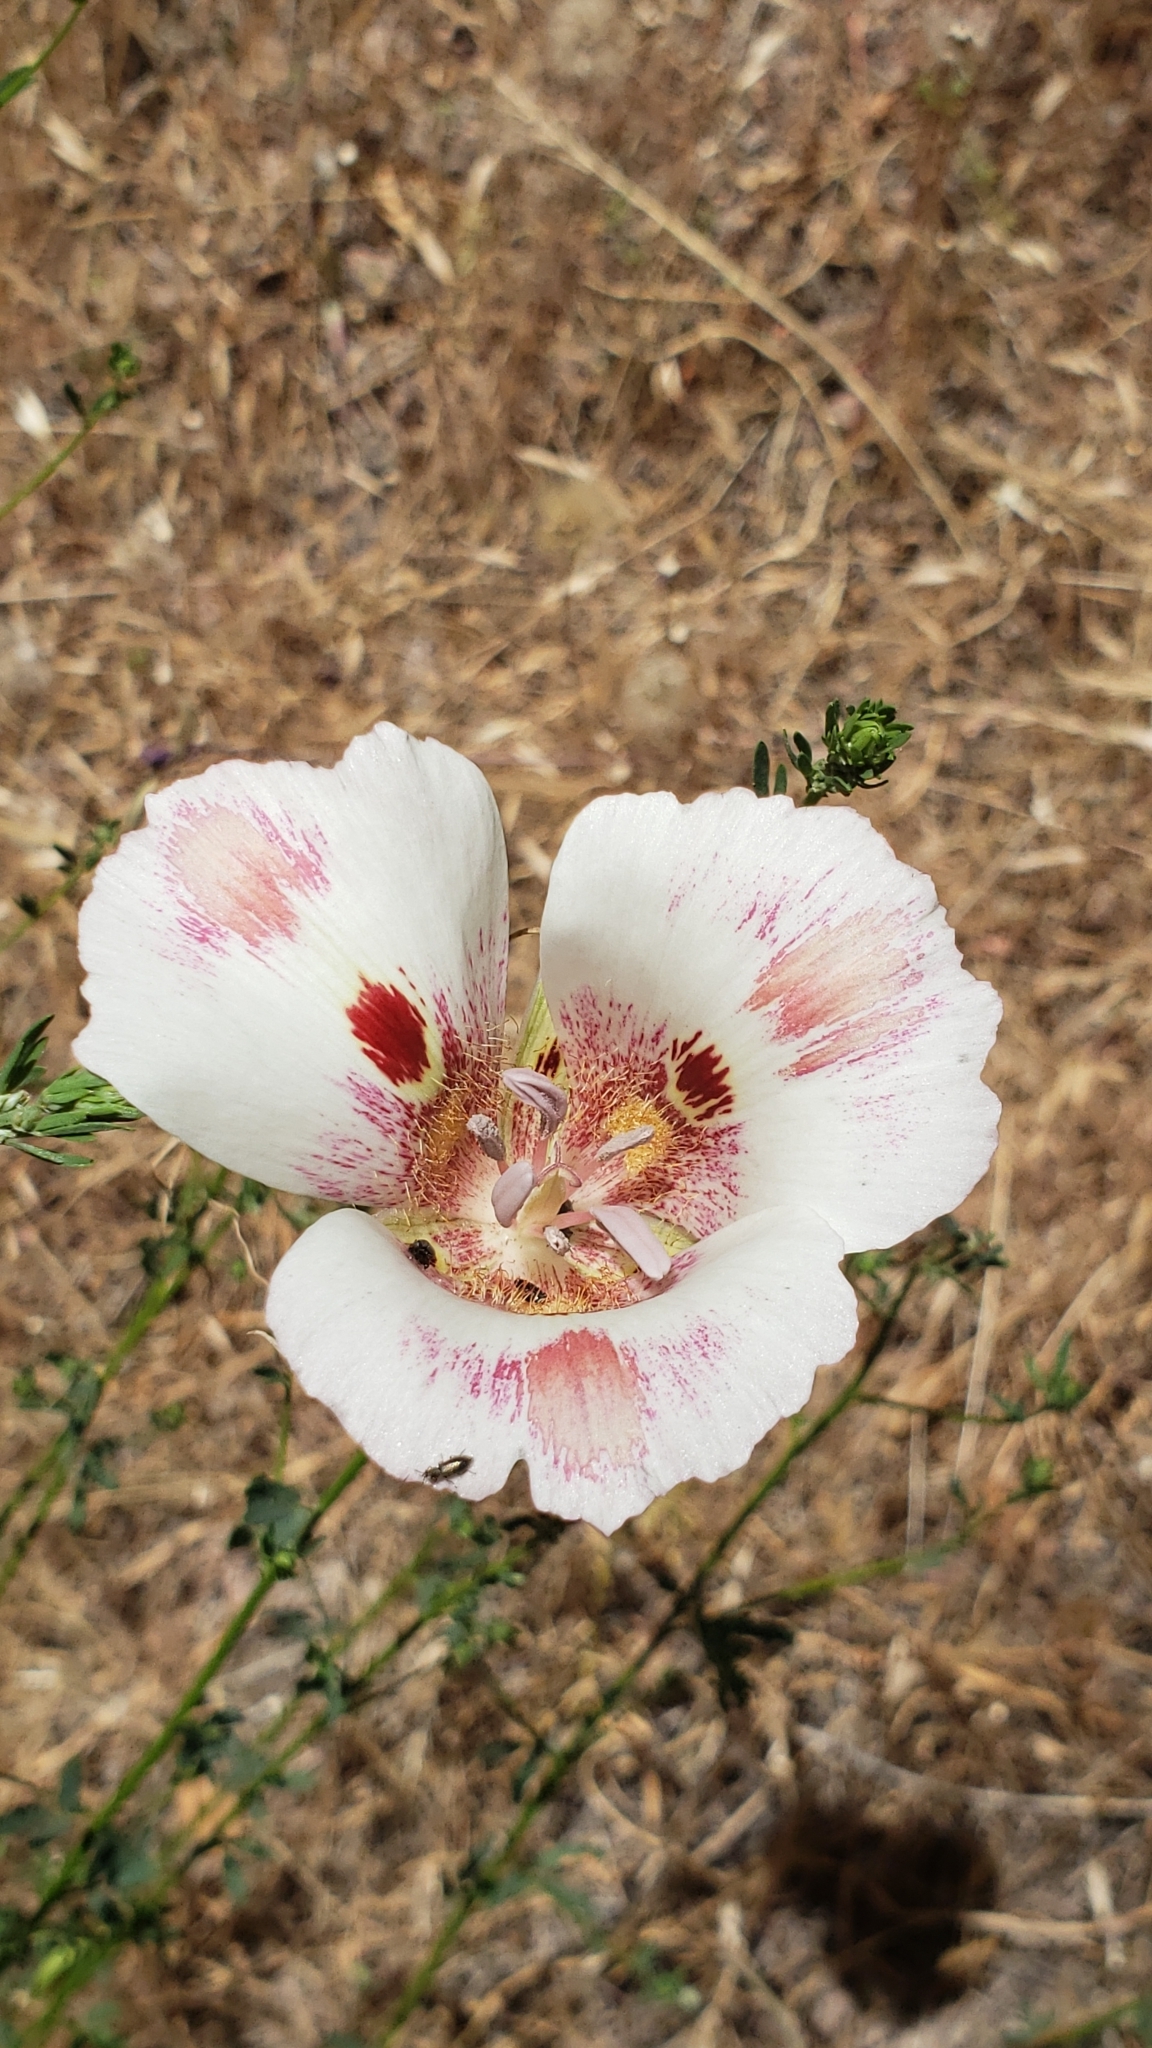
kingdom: Plantae
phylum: Tracheophyta
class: Liliopsida
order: Liliales
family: Liliaceae
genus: Calochortus
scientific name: Calochortus venustus
